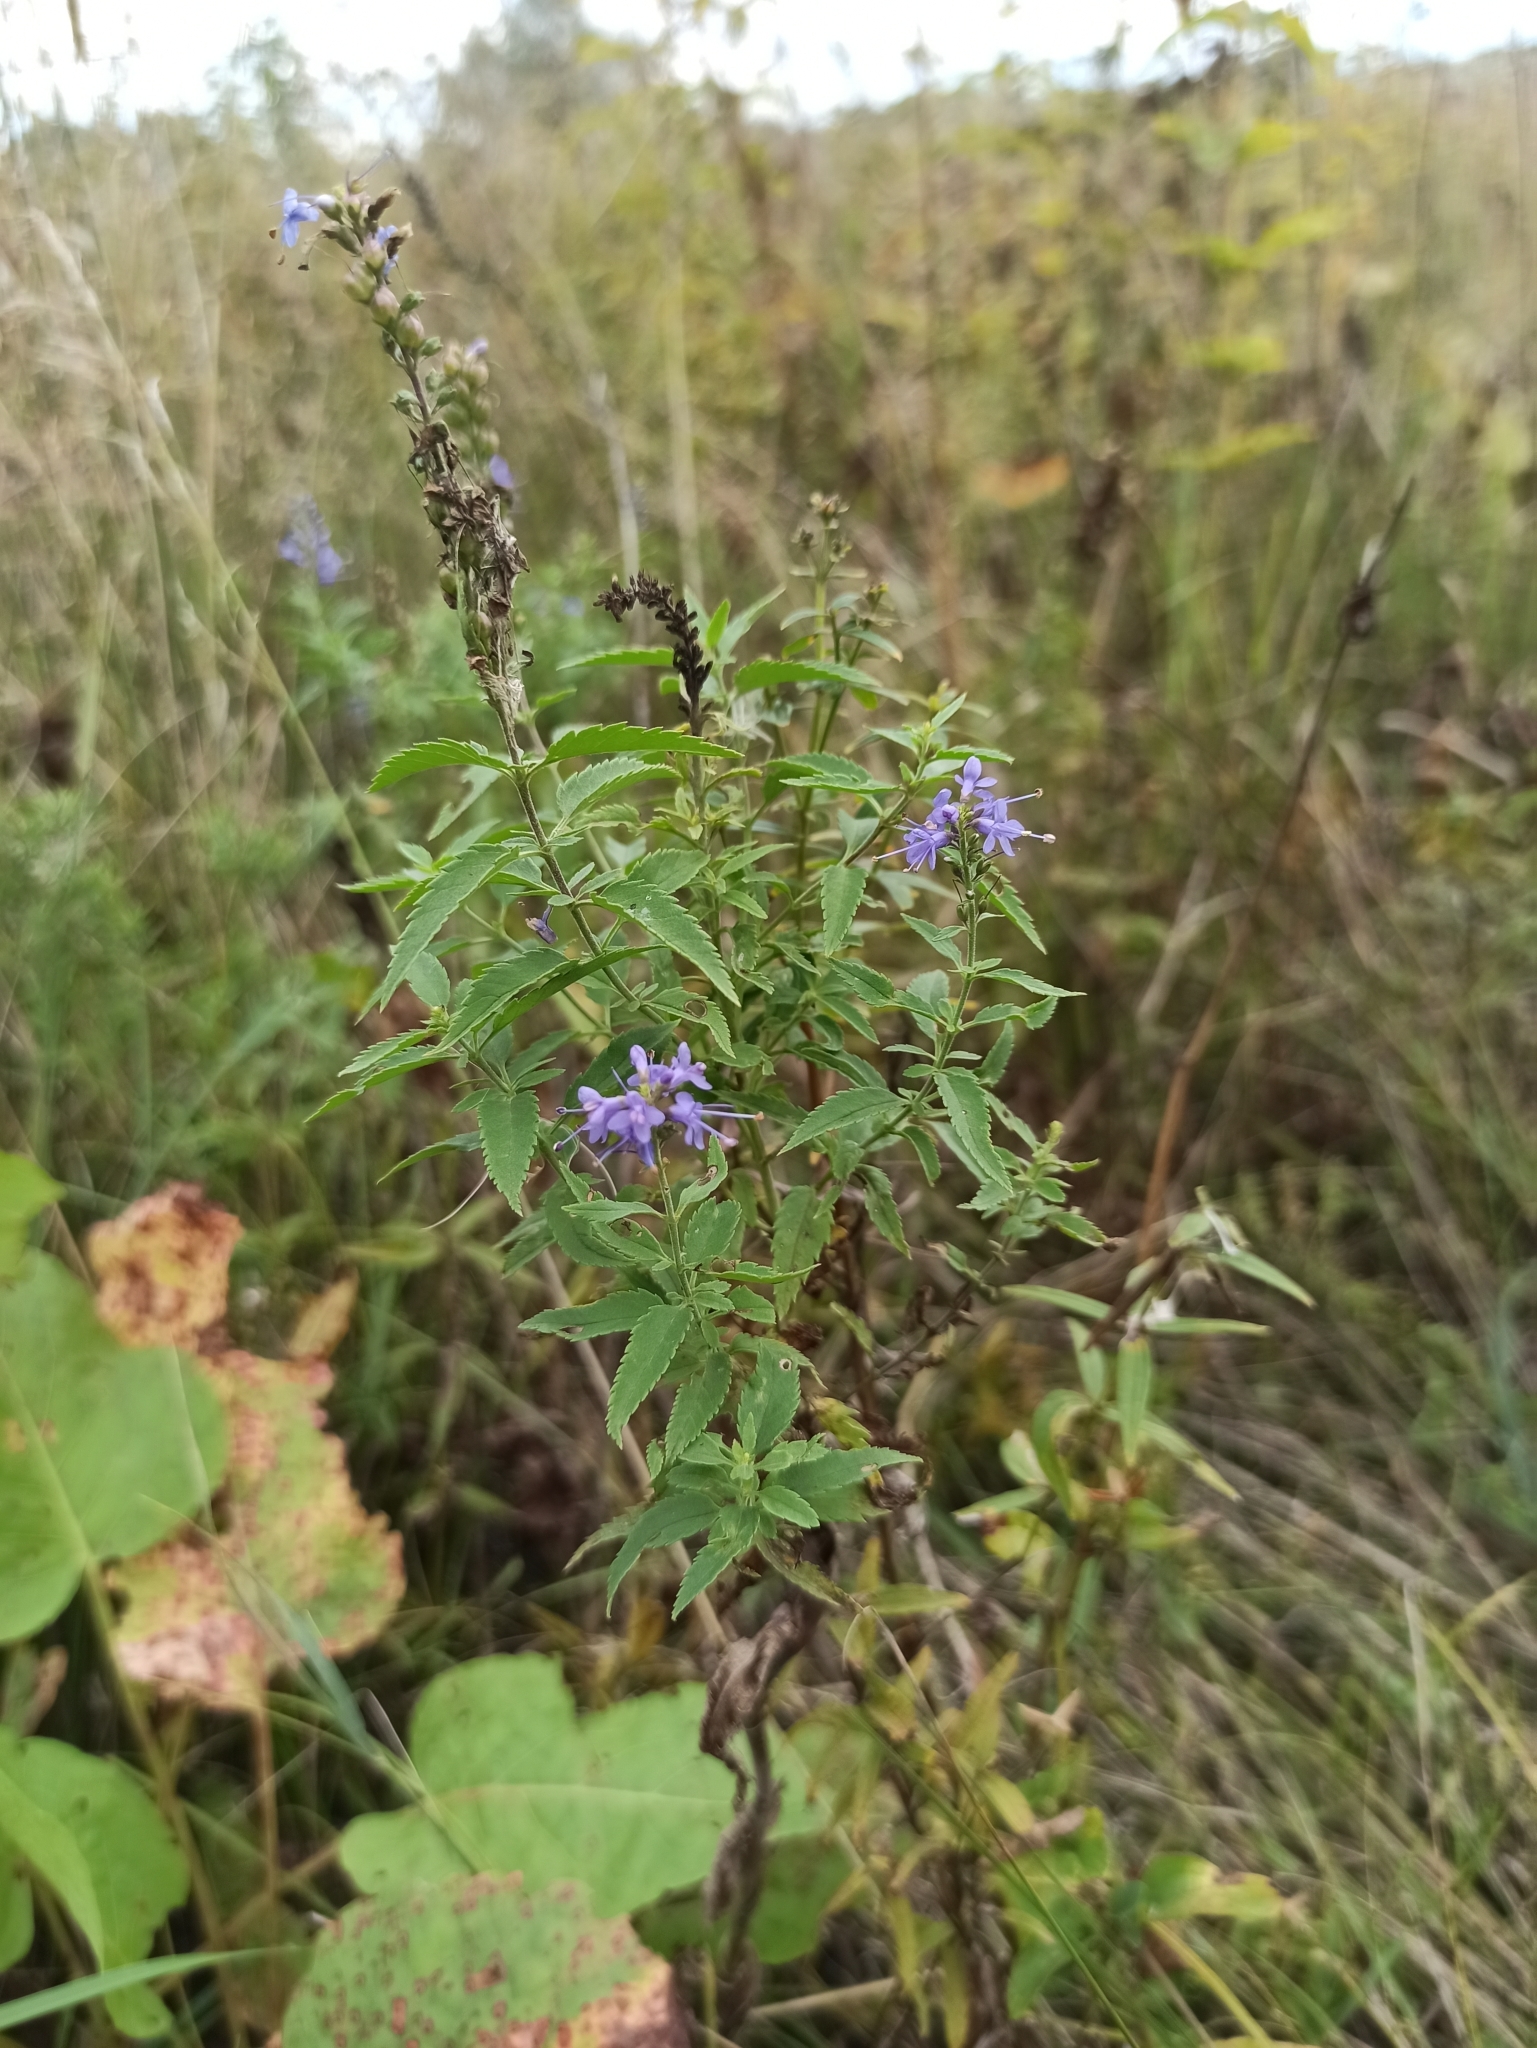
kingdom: Plantae
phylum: Tracheophyta
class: Magnoliopsida
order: Lamiales
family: Plantaginaceae
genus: Veronica
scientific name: Veronica longifolia
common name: Garden speedwell
